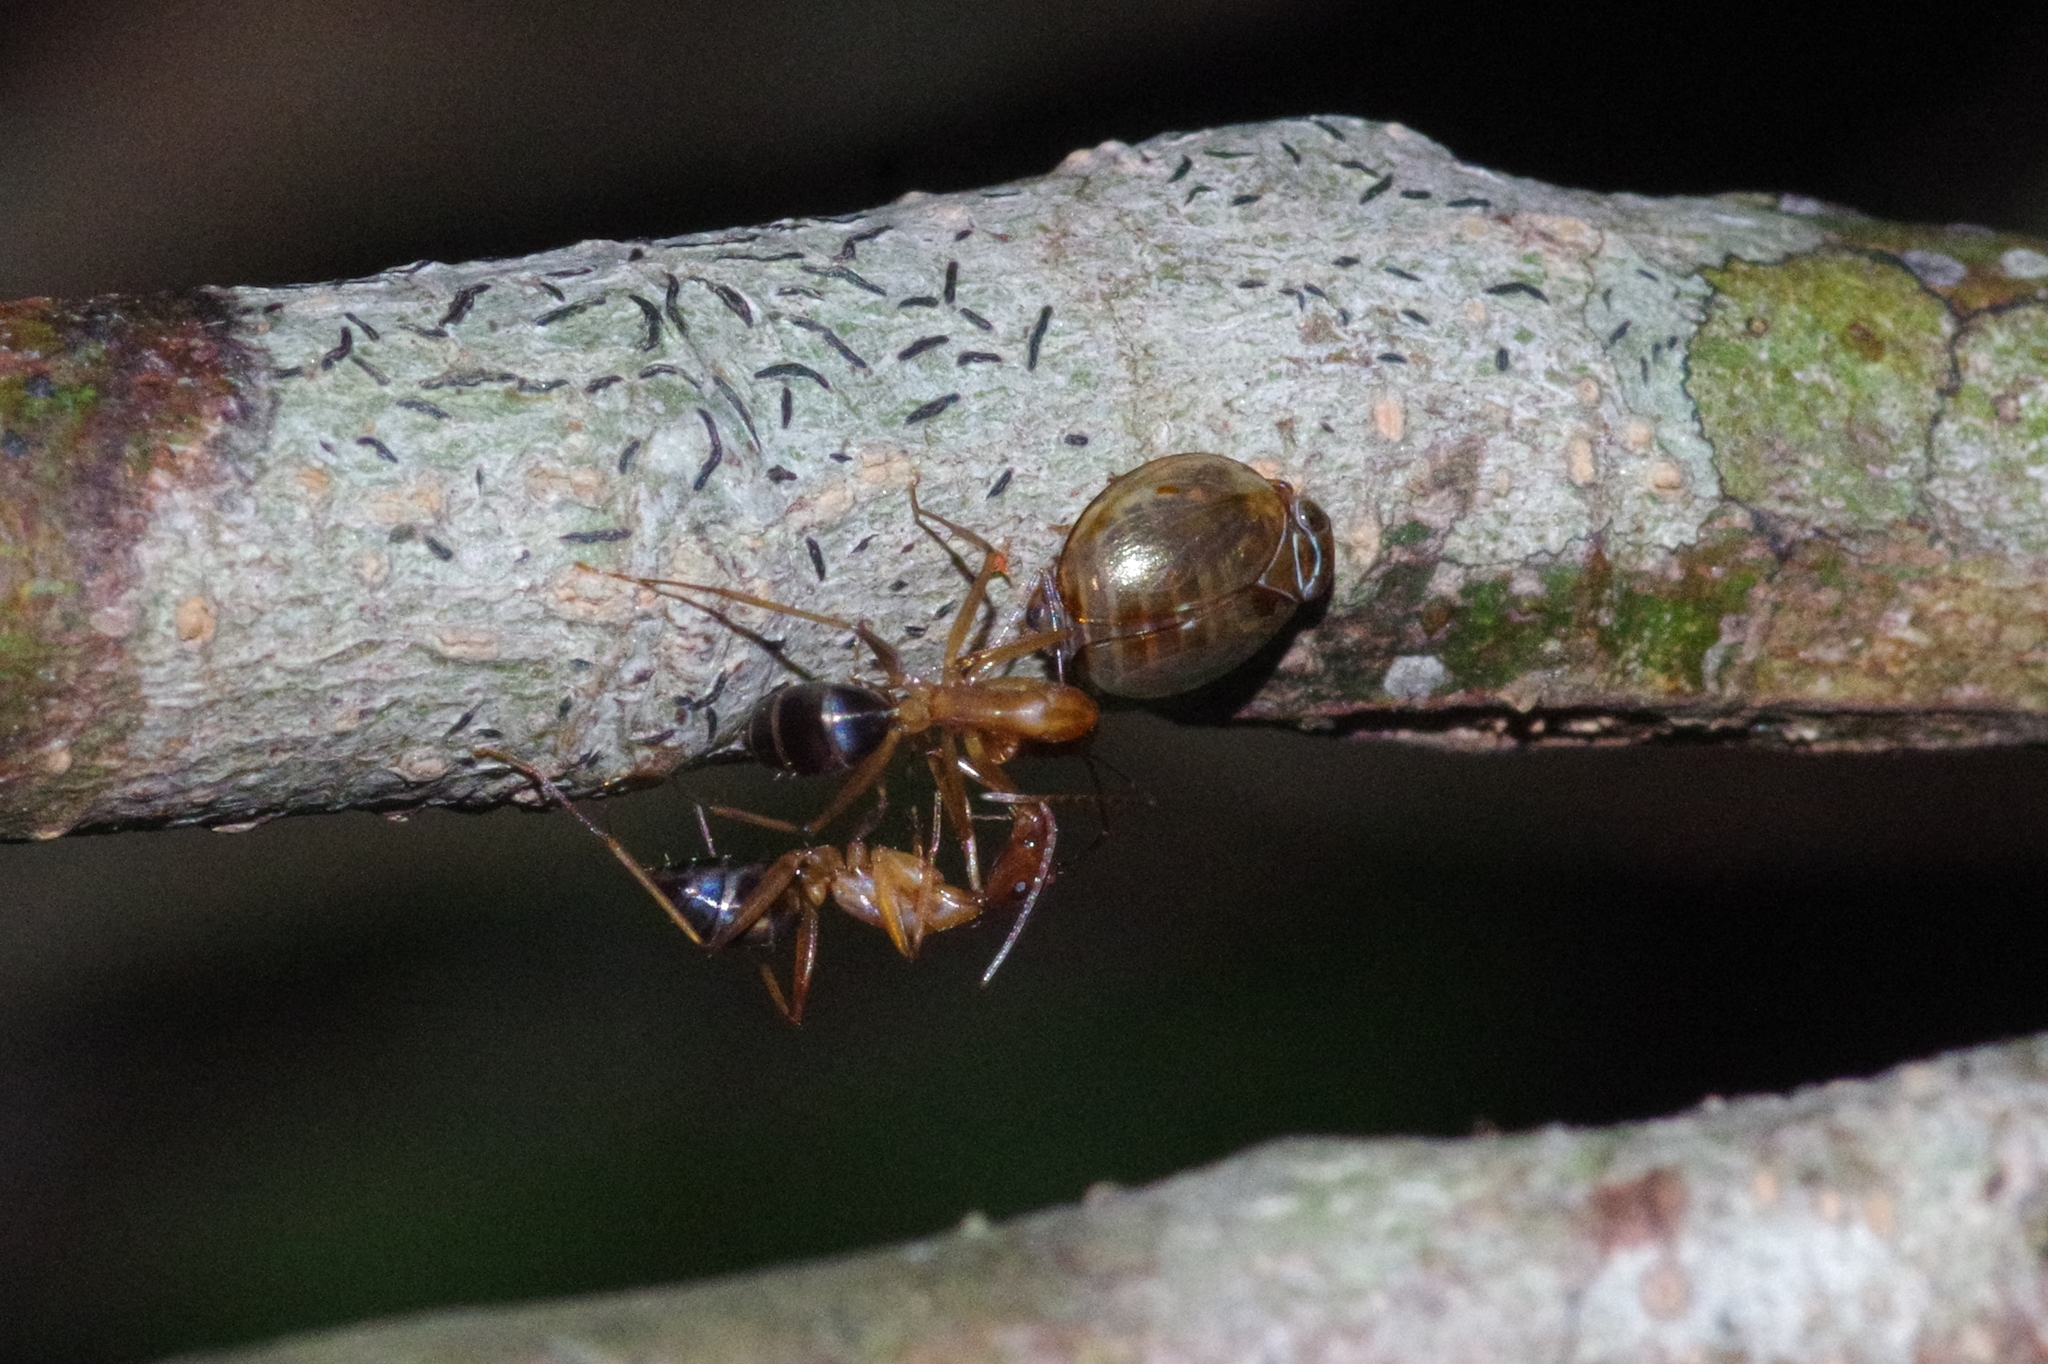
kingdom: Animalia
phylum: Arthropoda
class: Insecta
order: Hymenoptera
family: Formicidae
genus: Camponotus
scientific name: Camponotus devestitus
